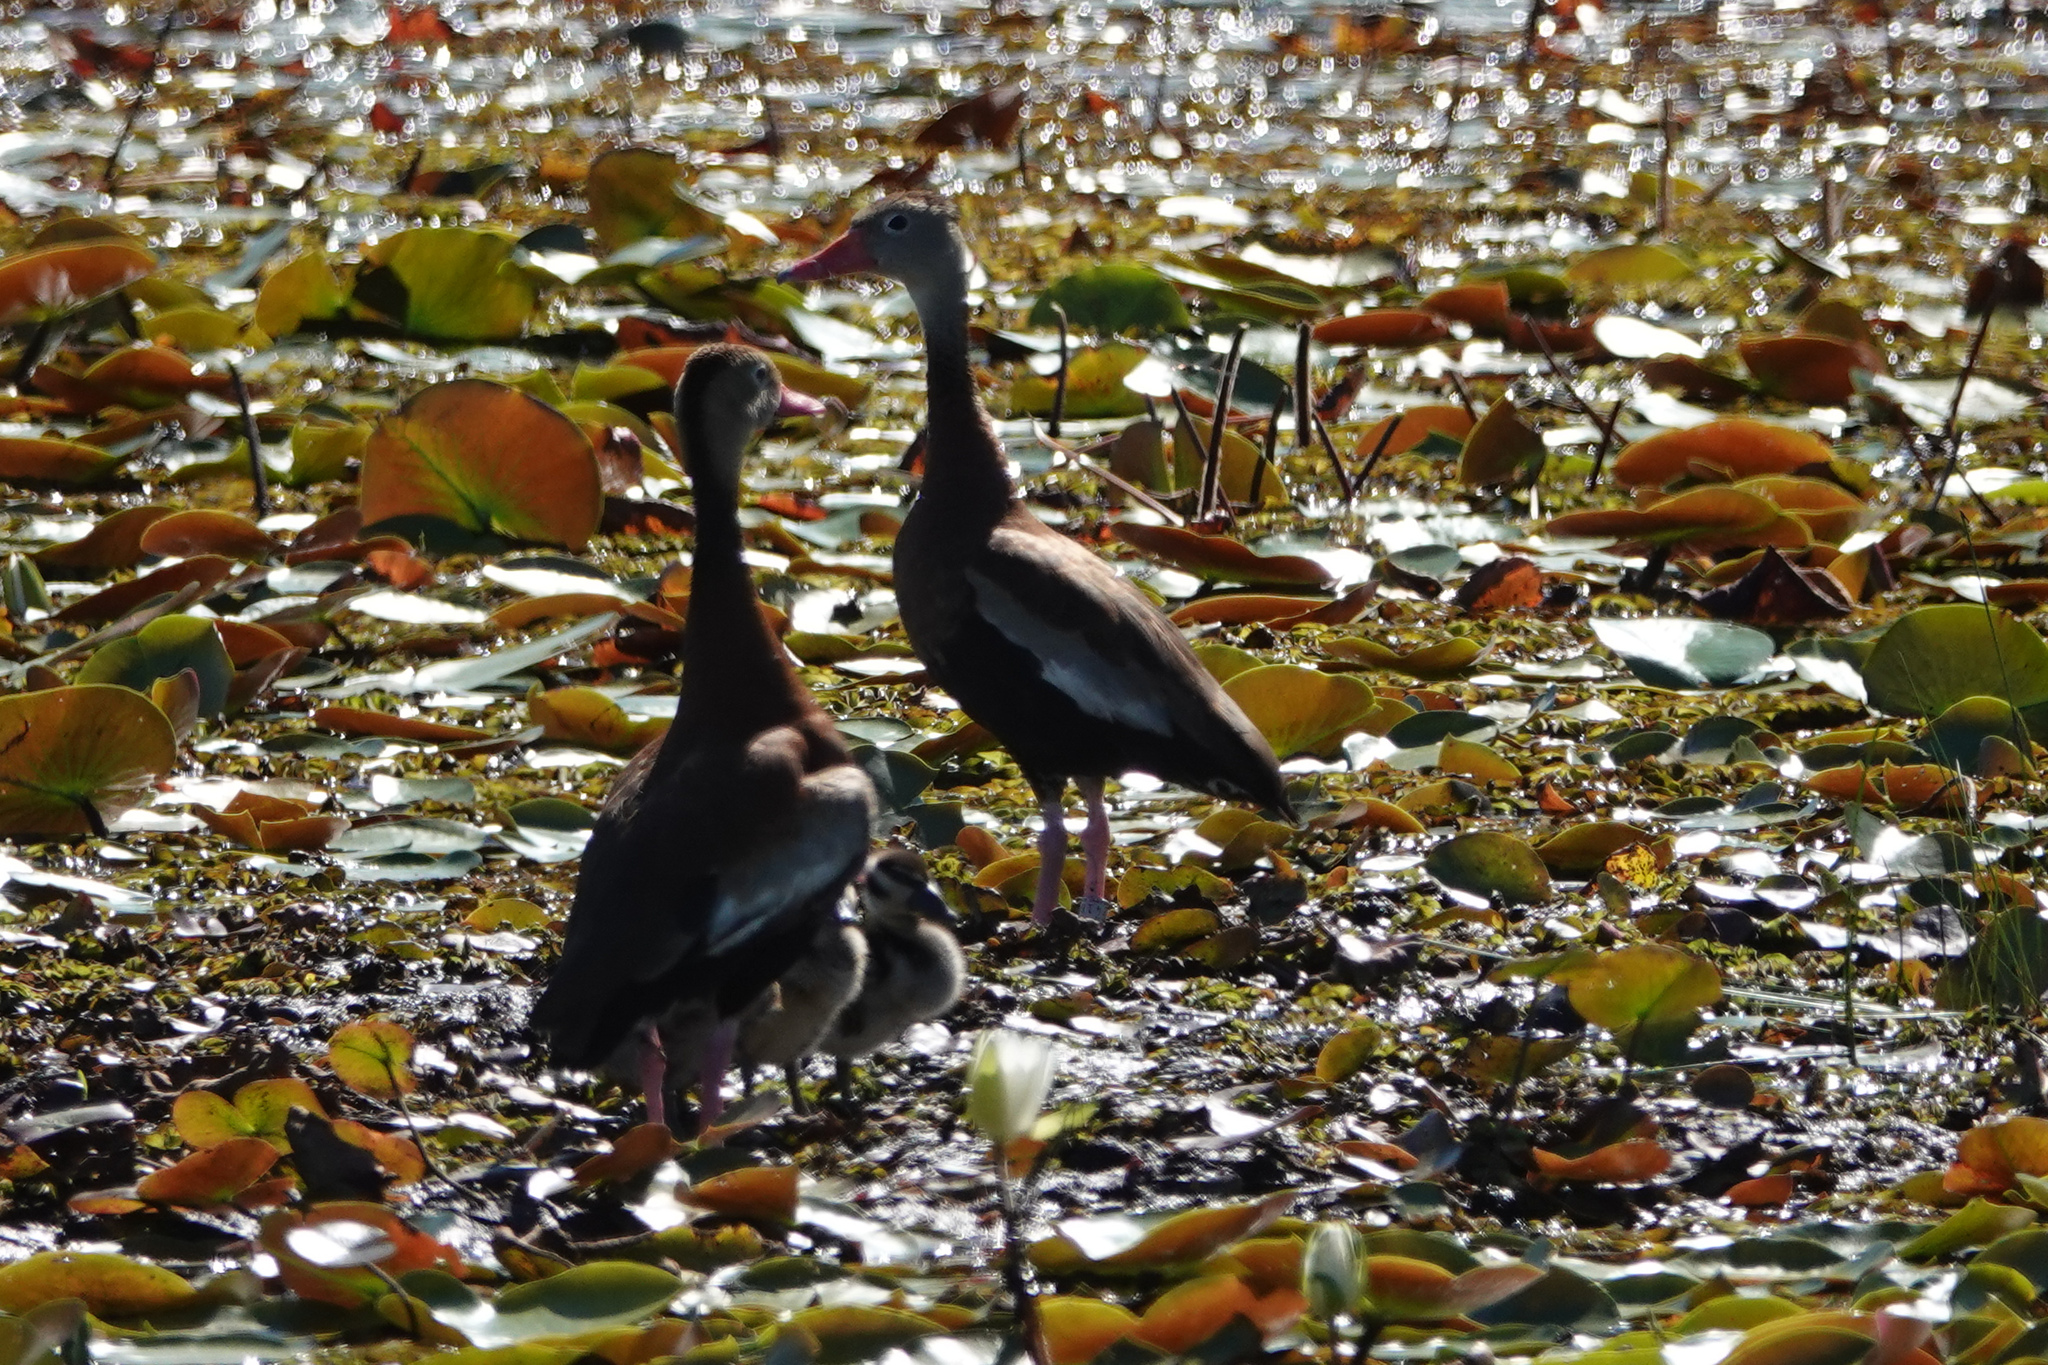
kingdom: Animalia
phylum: Chordata
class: Aves
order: Anseriformes
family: Anatidae
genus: Dendrocygna
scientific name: Dendrocygna autumnalis
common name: Black-bellied whistling duck
